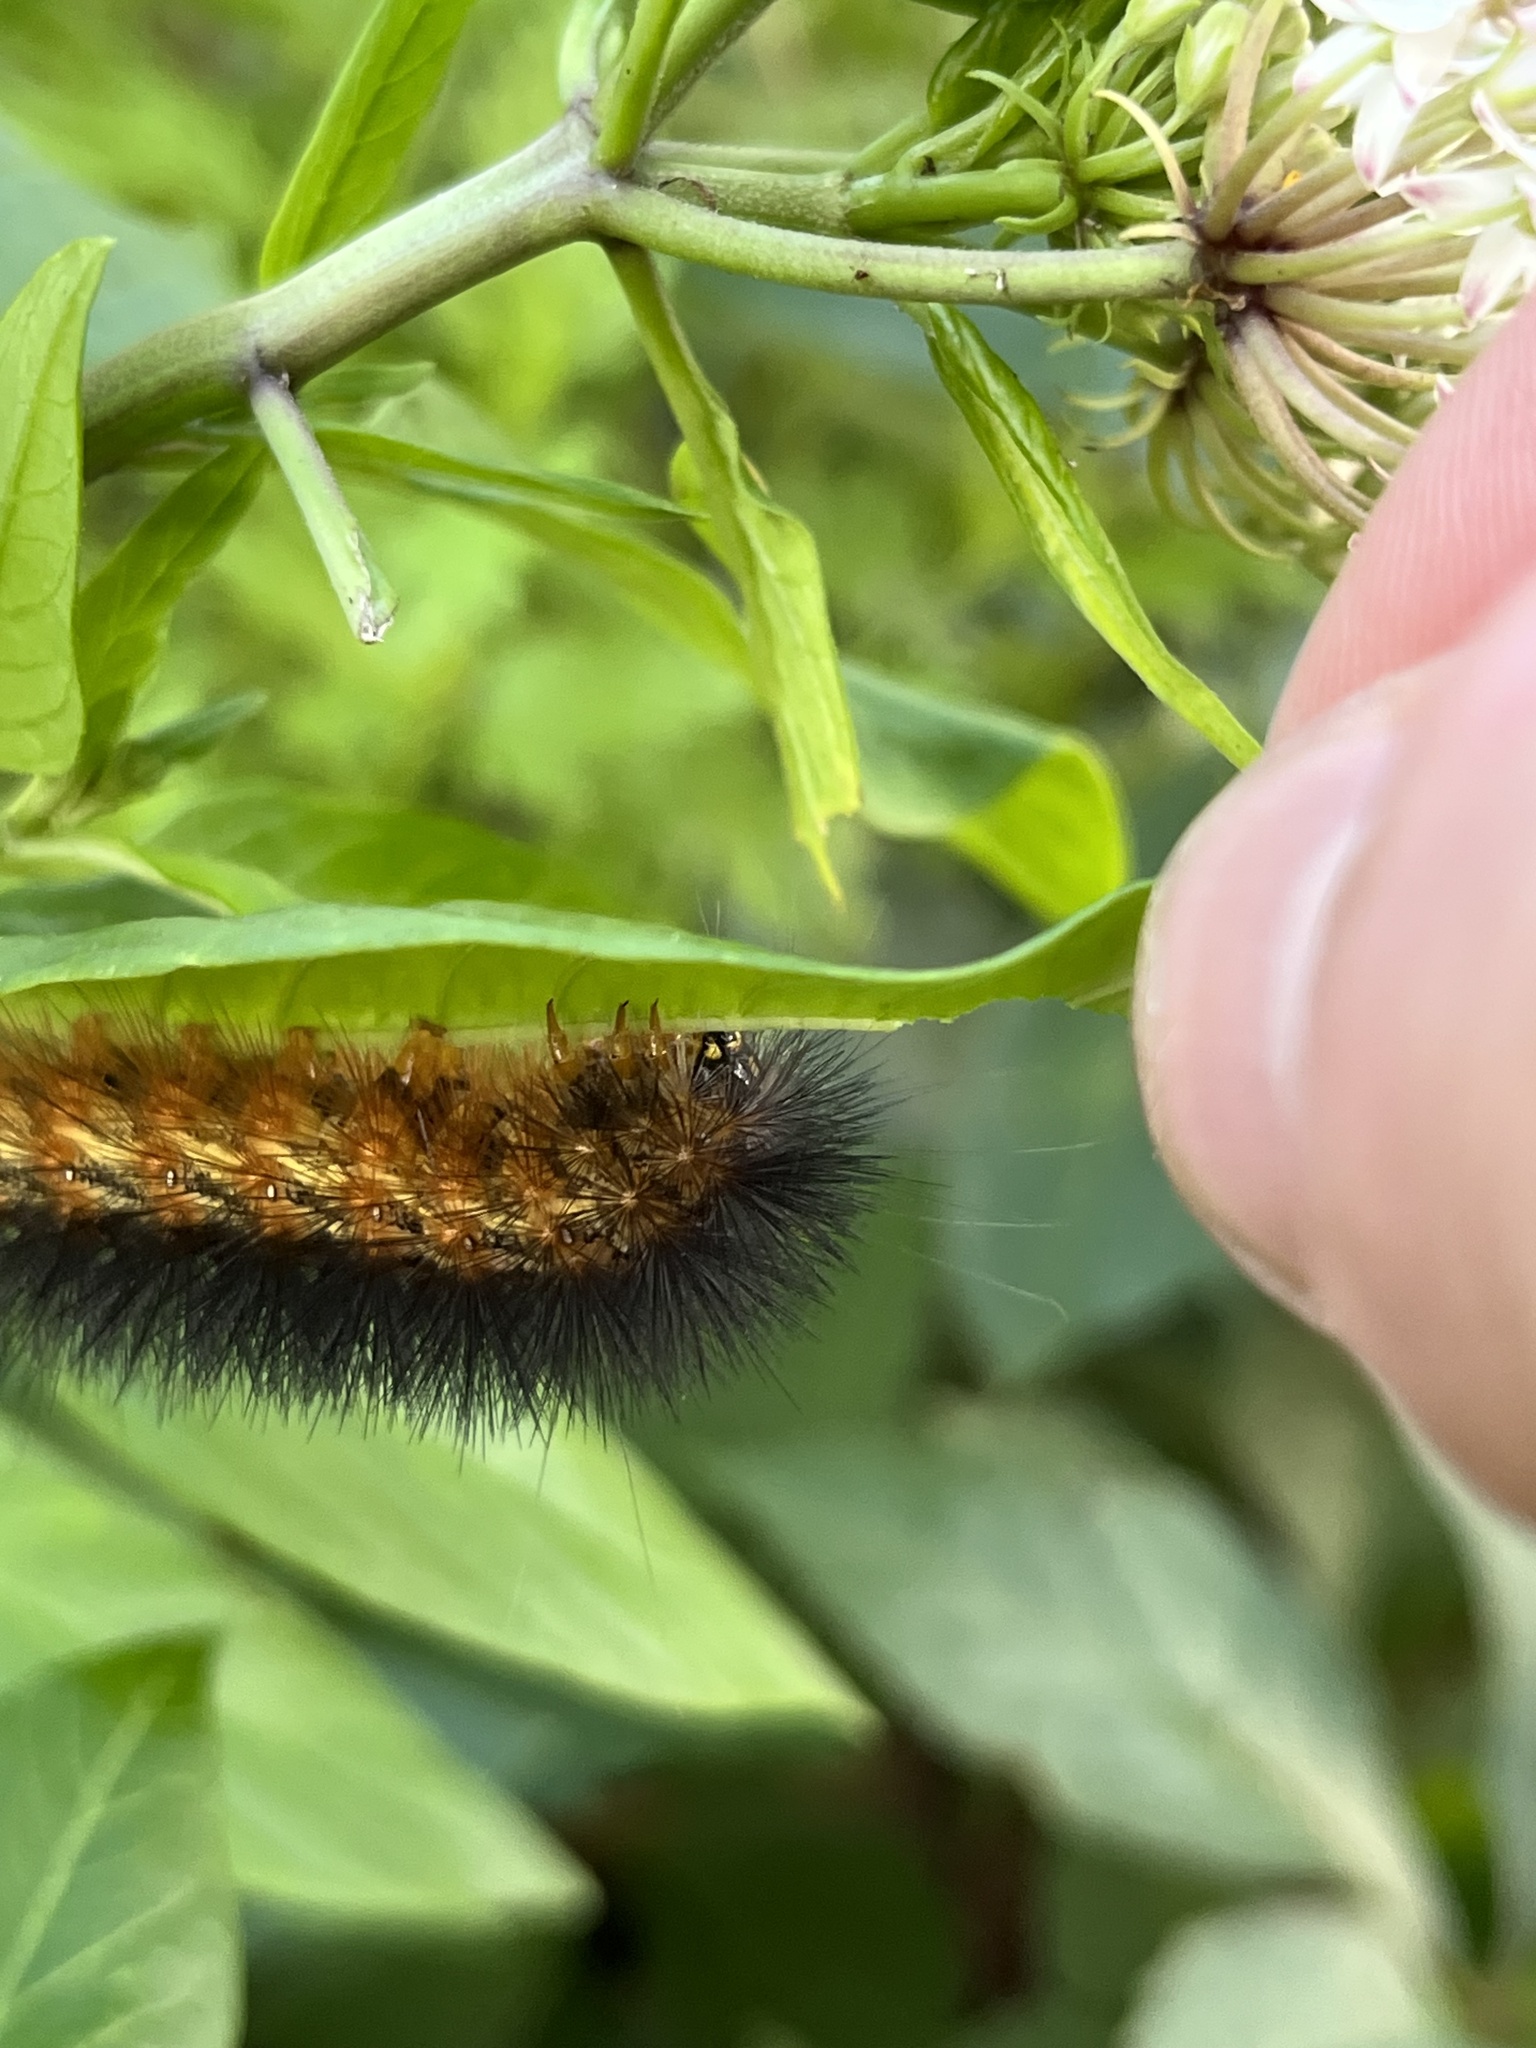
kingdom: Animalia
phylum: Arthropoda
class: Insecta
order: Lepidoptera
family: Erebidae
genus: Estigmene
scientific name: Estigmene acrea
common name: Salt marsh moth
